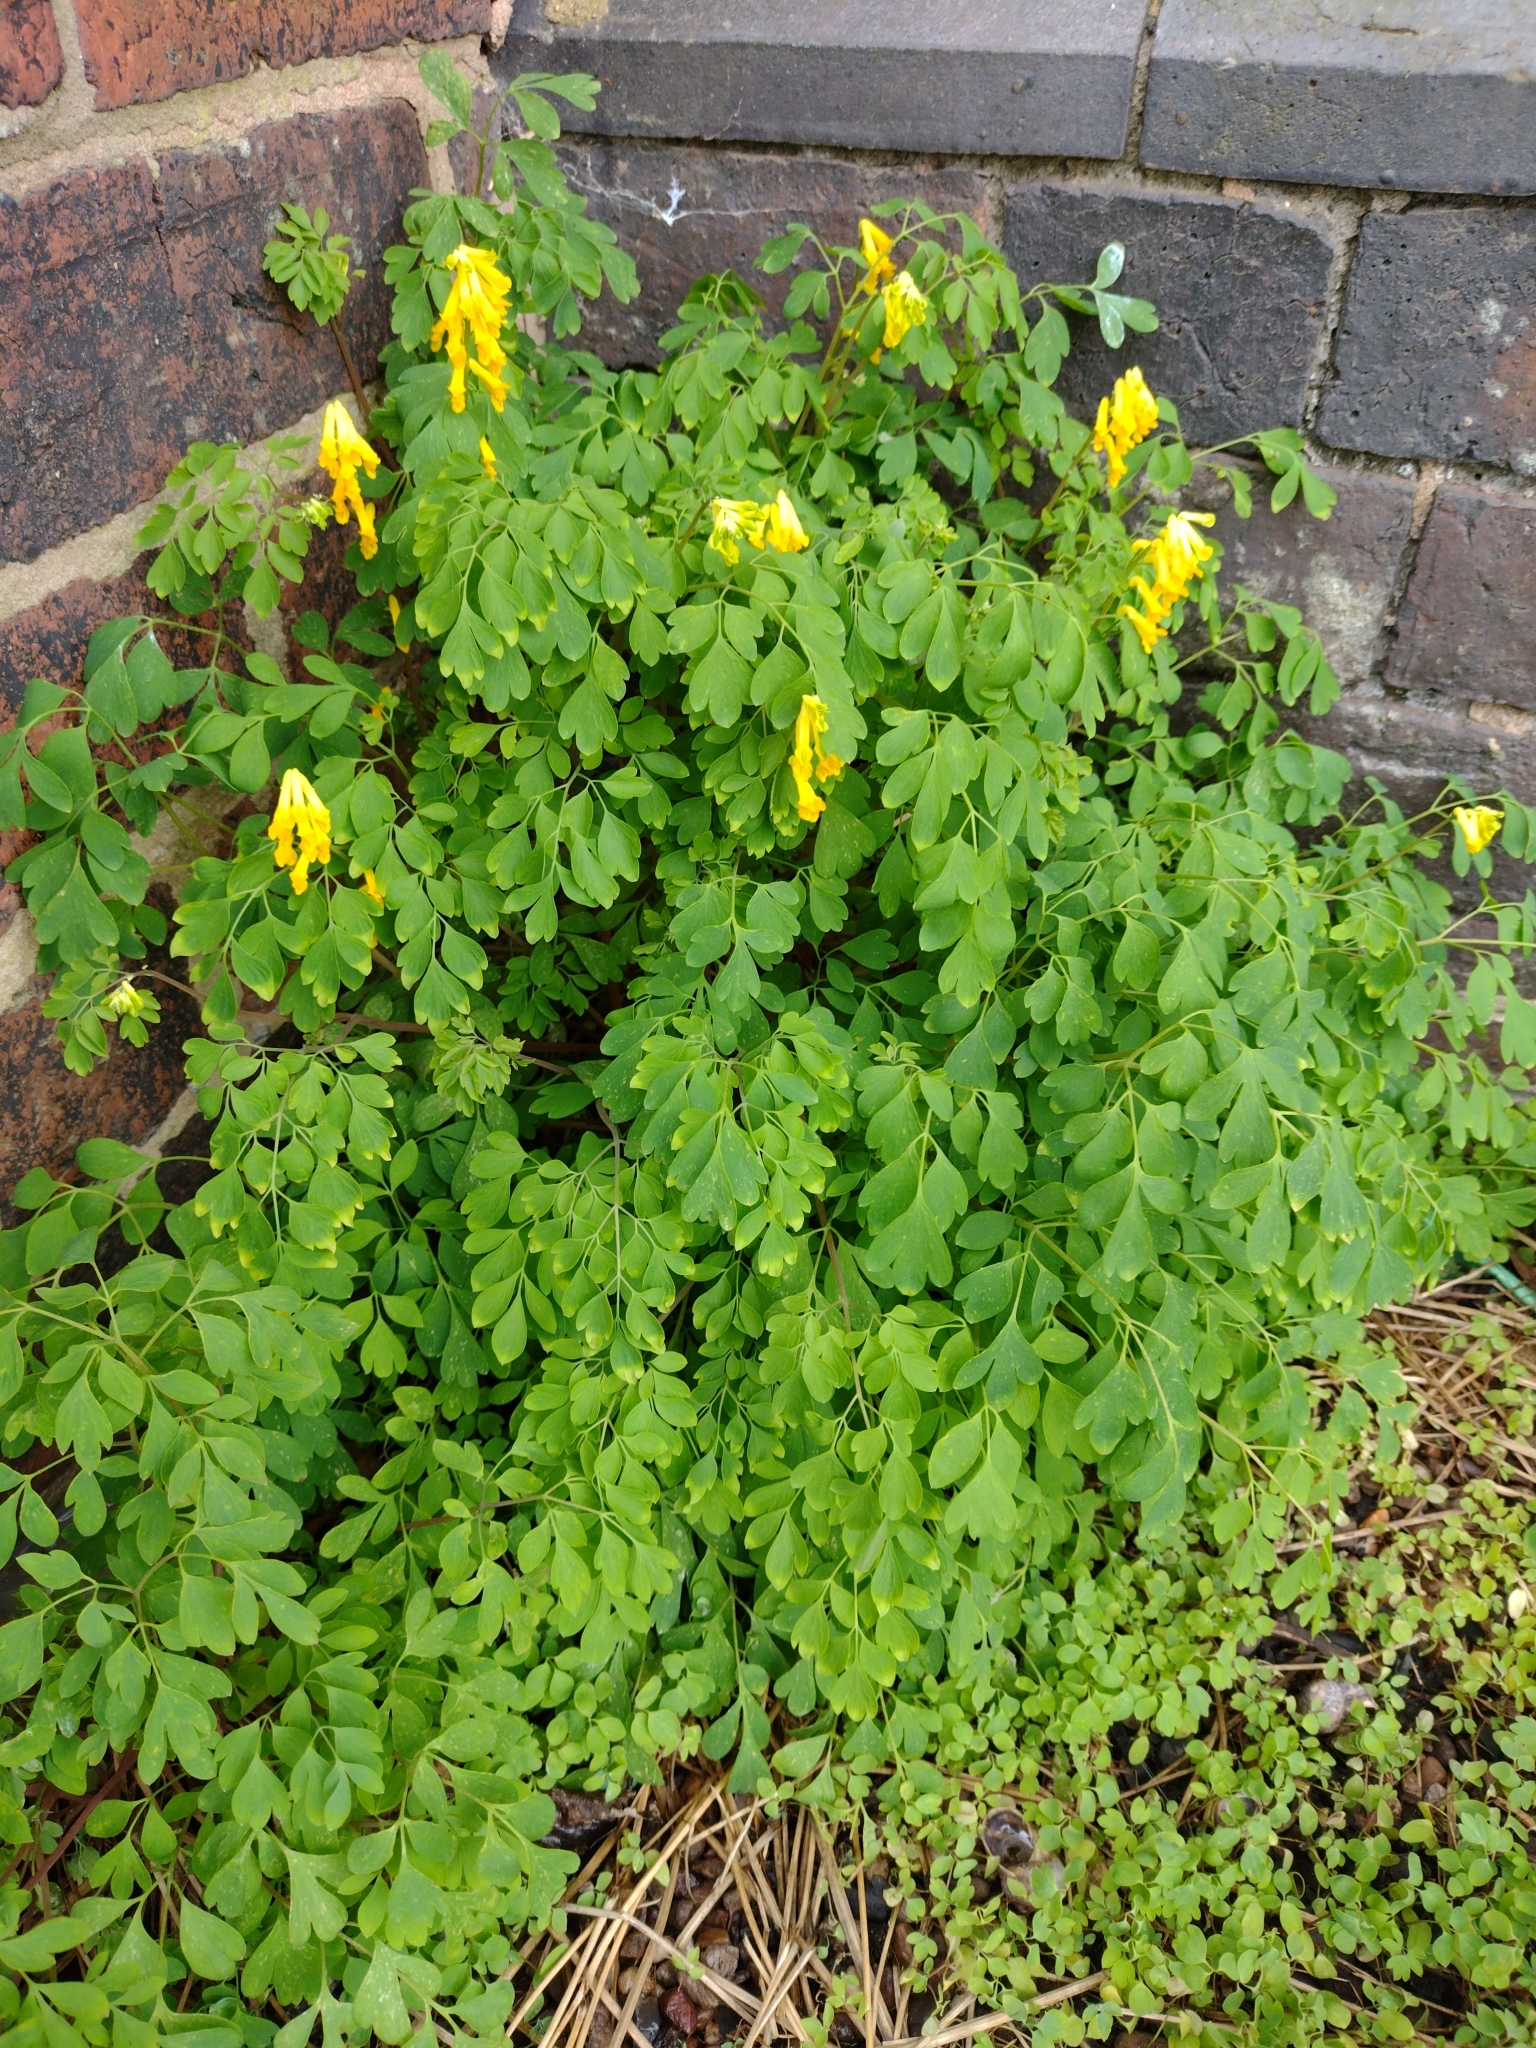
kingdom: Plantae
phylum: Tracheophyta
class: Magnoliopsida
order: Ranunculales
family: Papaveraceae
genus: Pseudofumaria
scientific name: Pseudofumaria lutea
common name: Yellow corydalis
